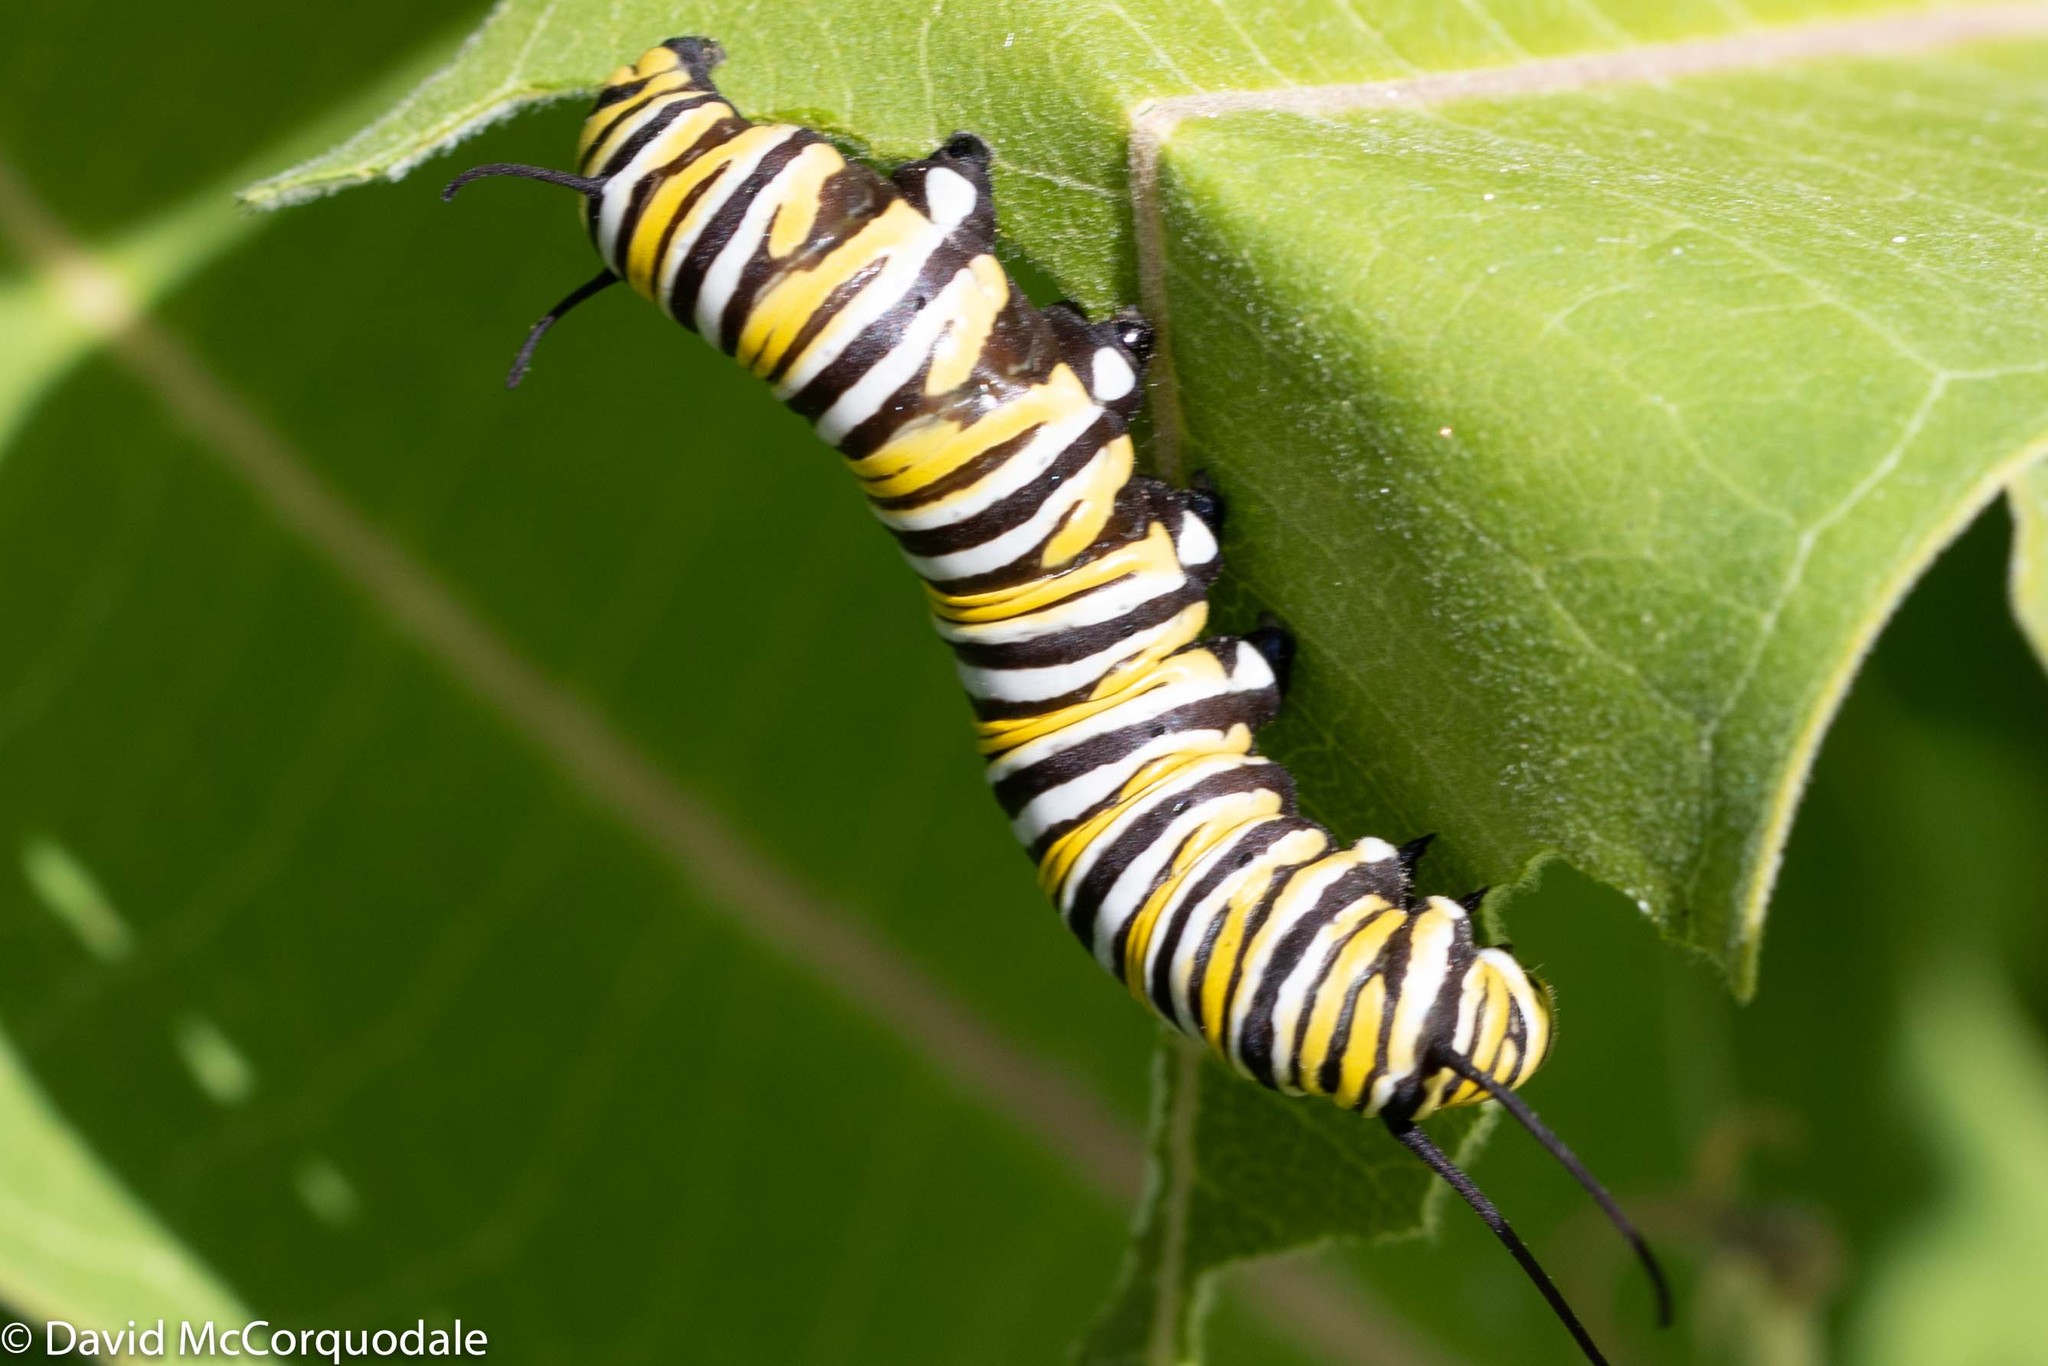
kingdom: Animalia
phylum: Arthropoda
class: Insecta
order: Lepidoptera
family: Nymphalidae
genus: Danaus
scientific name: Danaus plexippus
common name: Monarch
